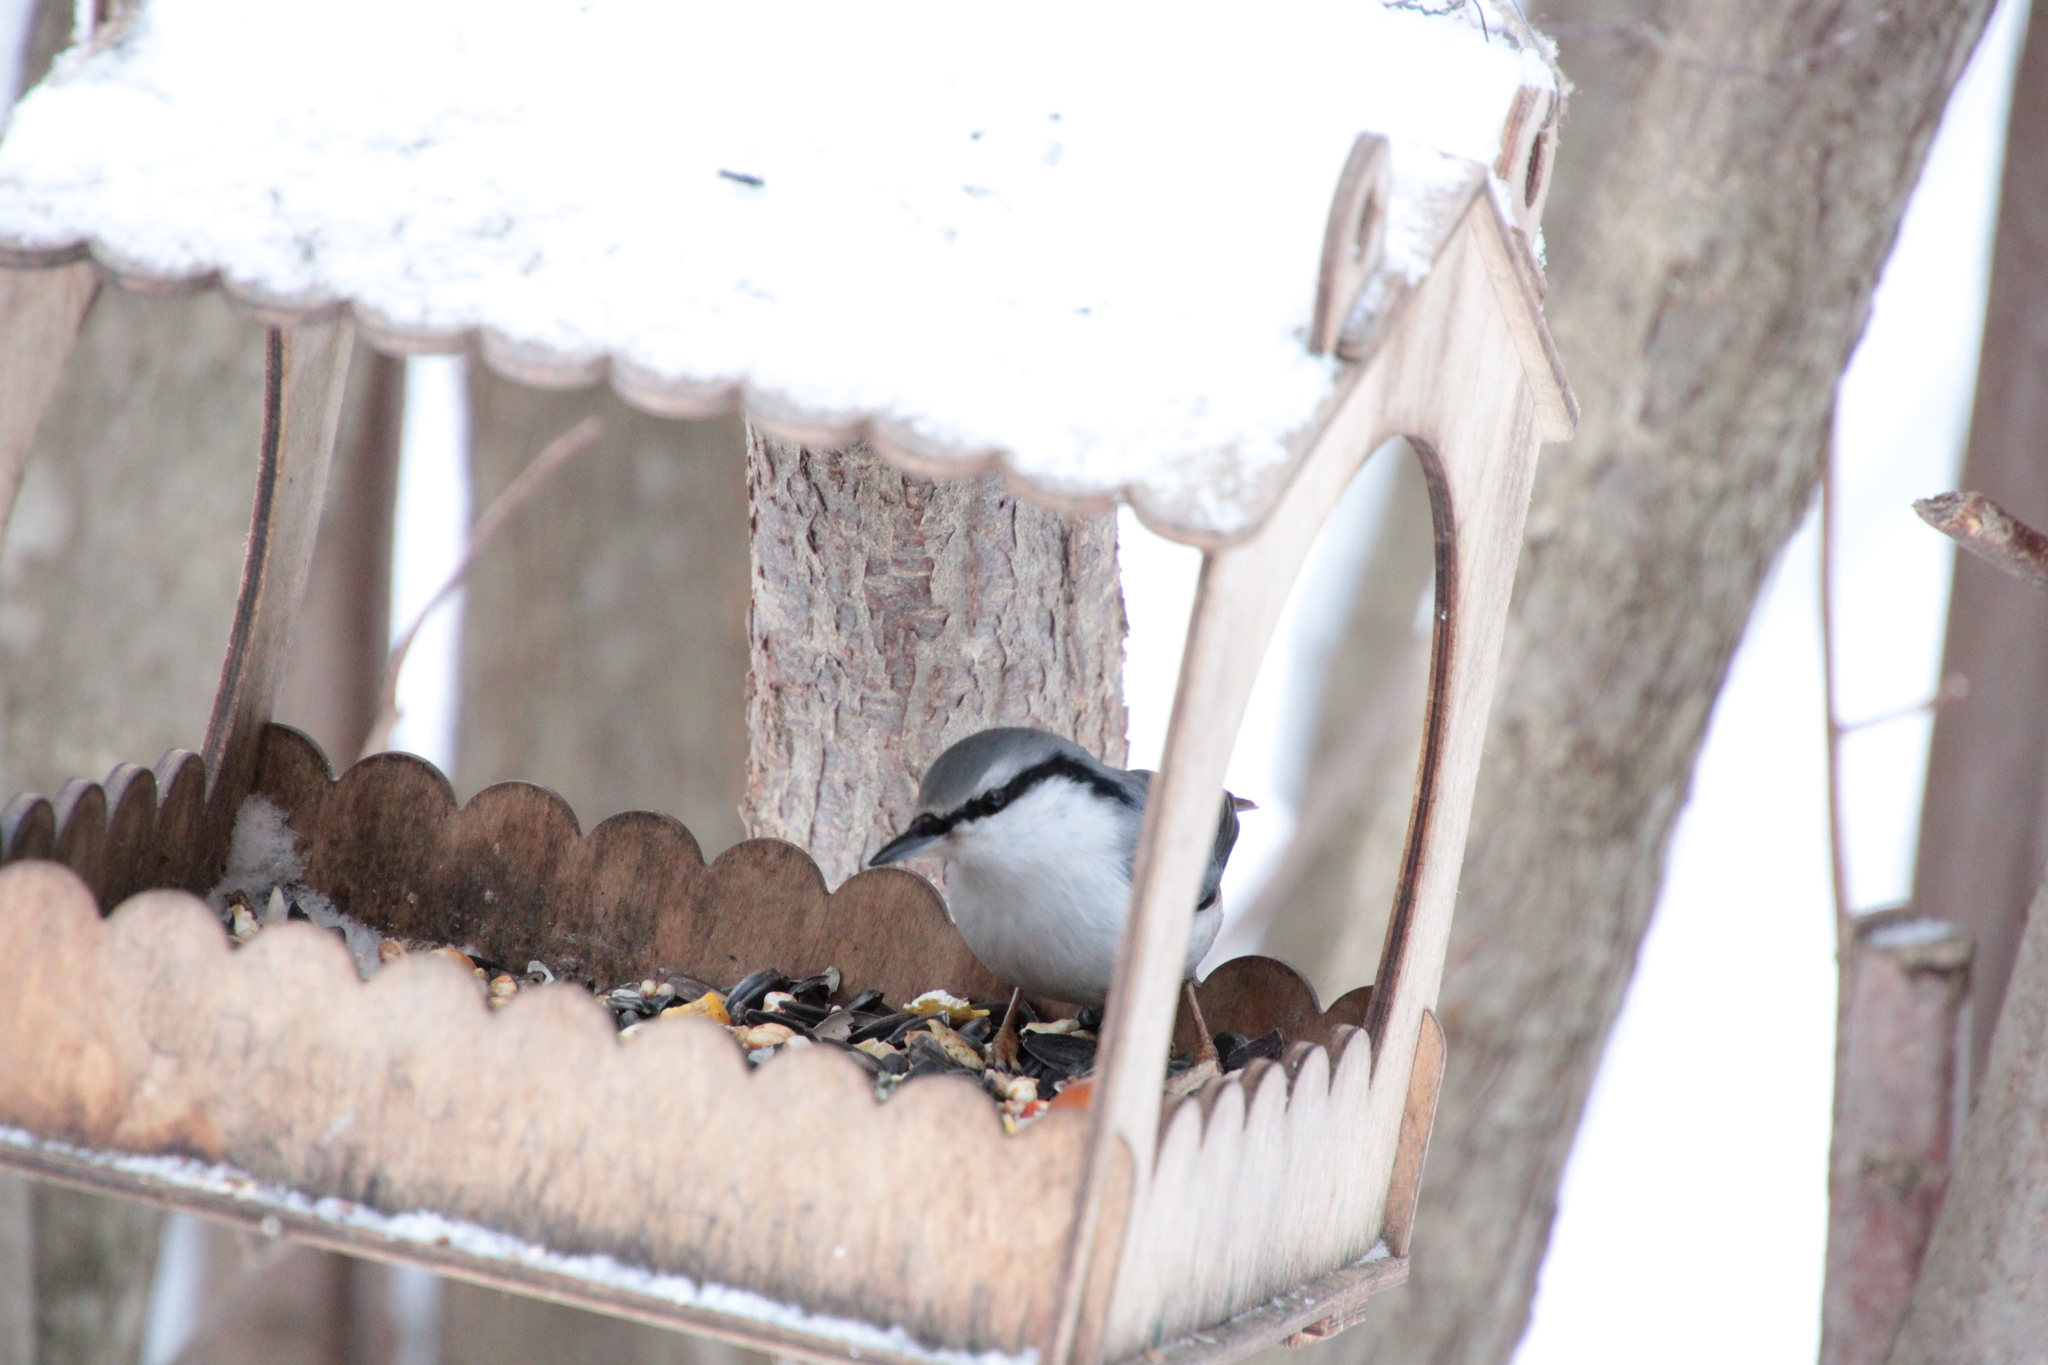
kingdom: Animalia
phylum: Chordata
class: Aves
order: Passeriformes
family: Sittidae
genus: Sitta
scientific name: Sitta europaea
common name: Eurasian nuthatch
